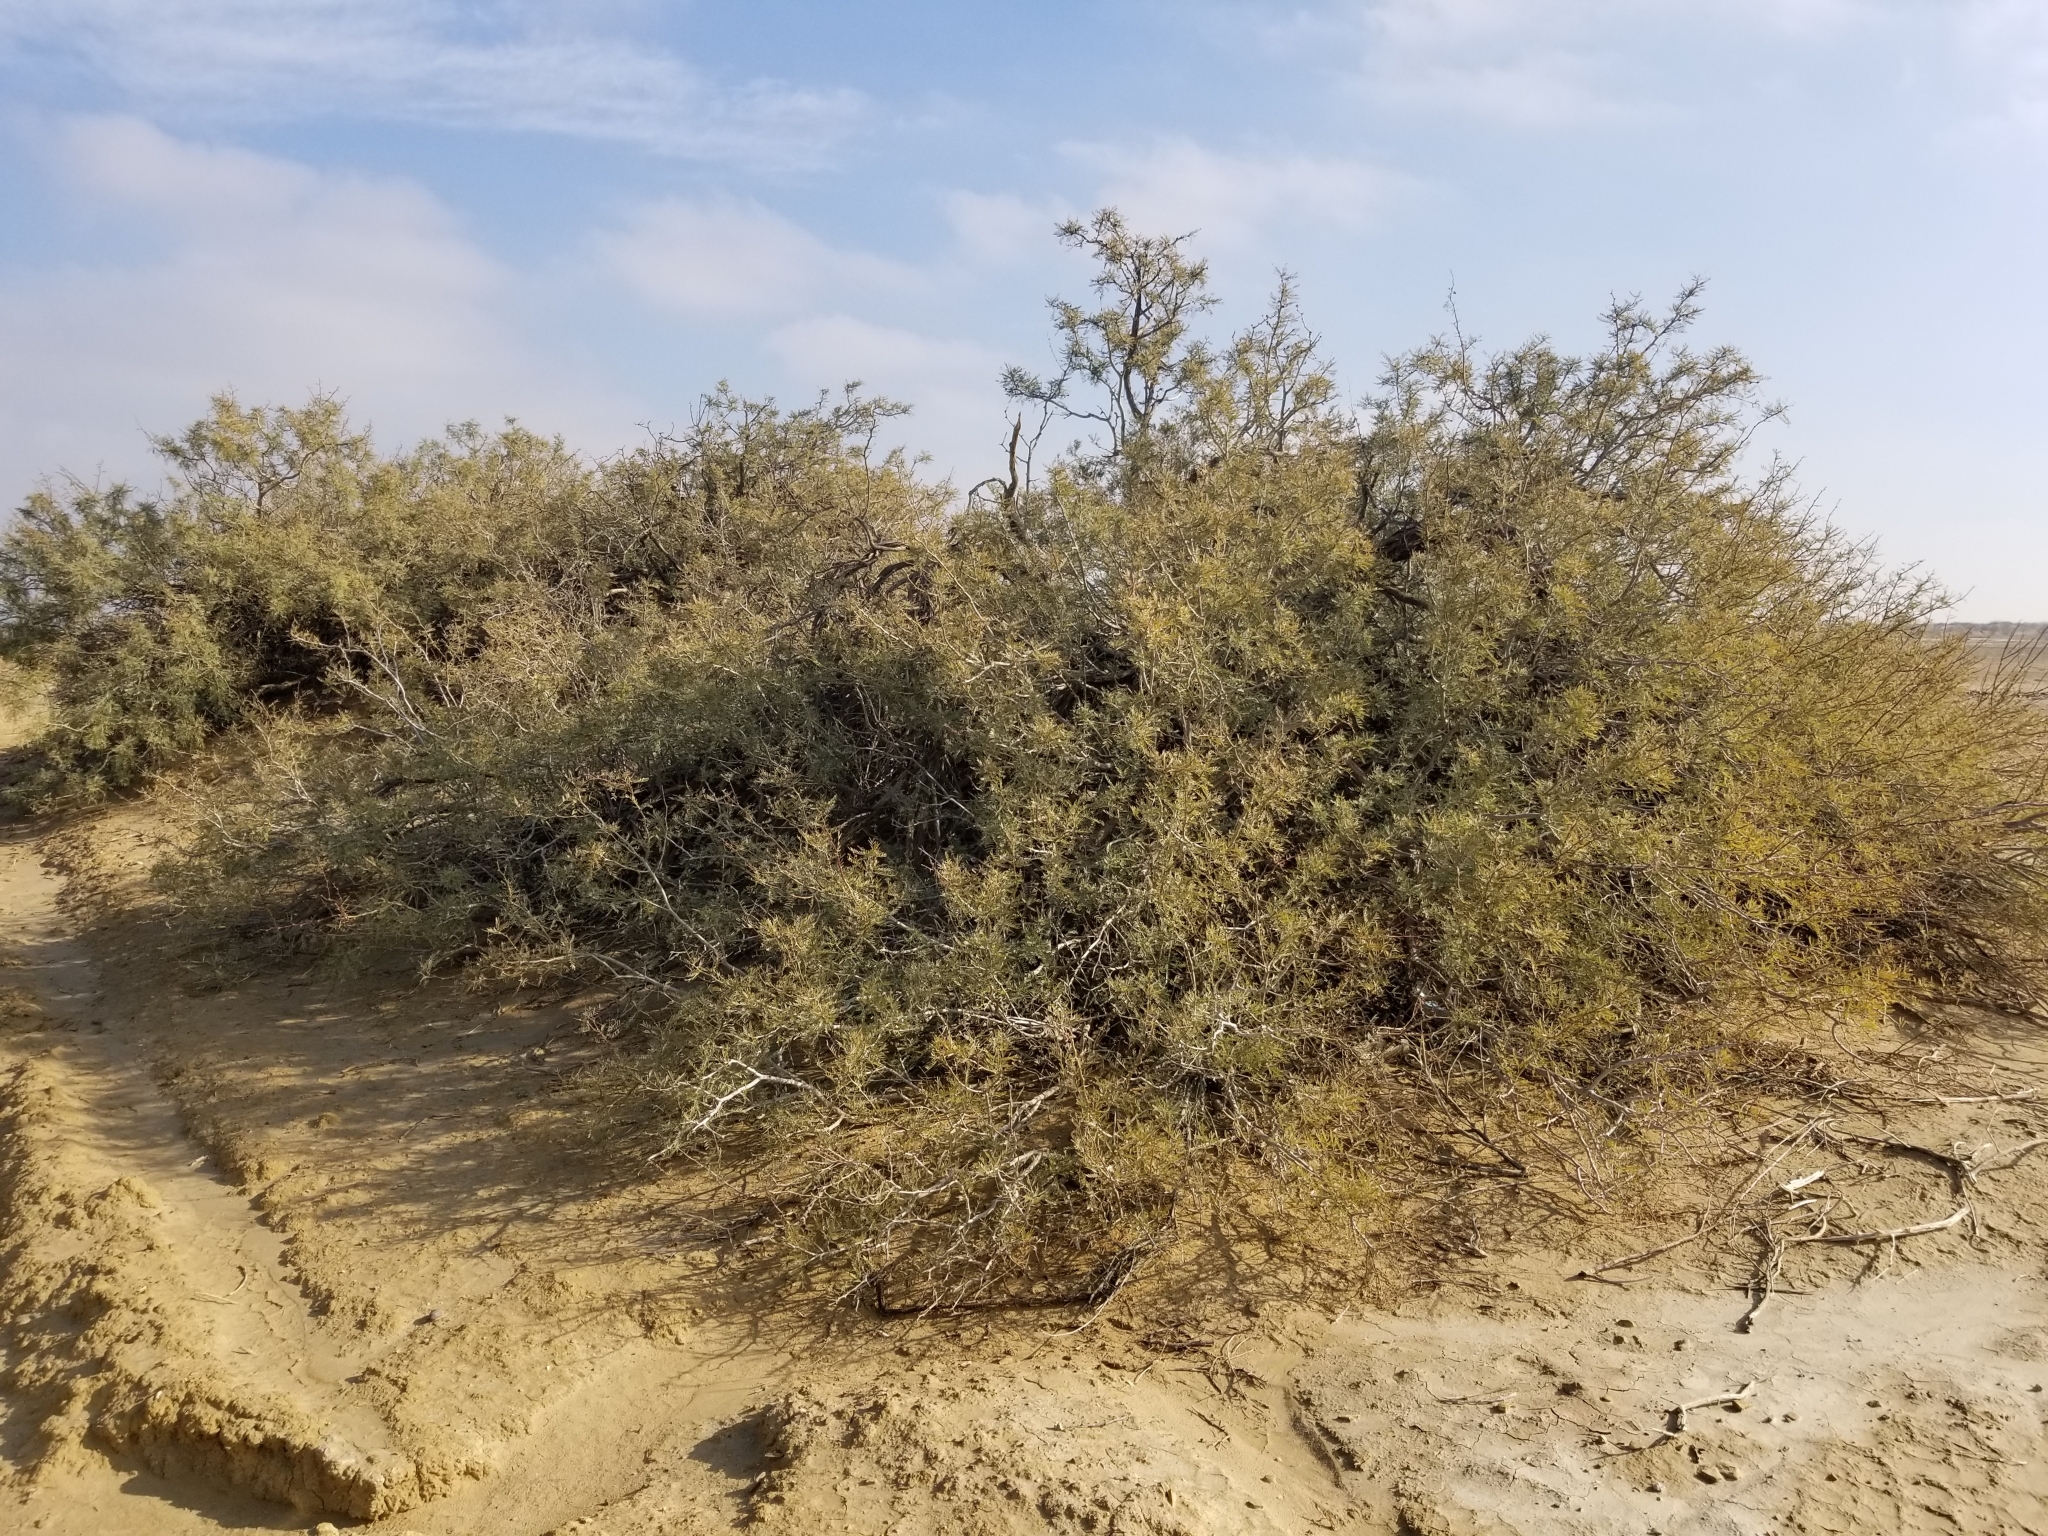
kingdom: Plantae
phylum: Tracheophyta
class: Magnoliopsida
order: Fabales
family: Fabaceae
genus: Prosopis
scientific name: Prosopis pubescens
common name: Screw-bean
